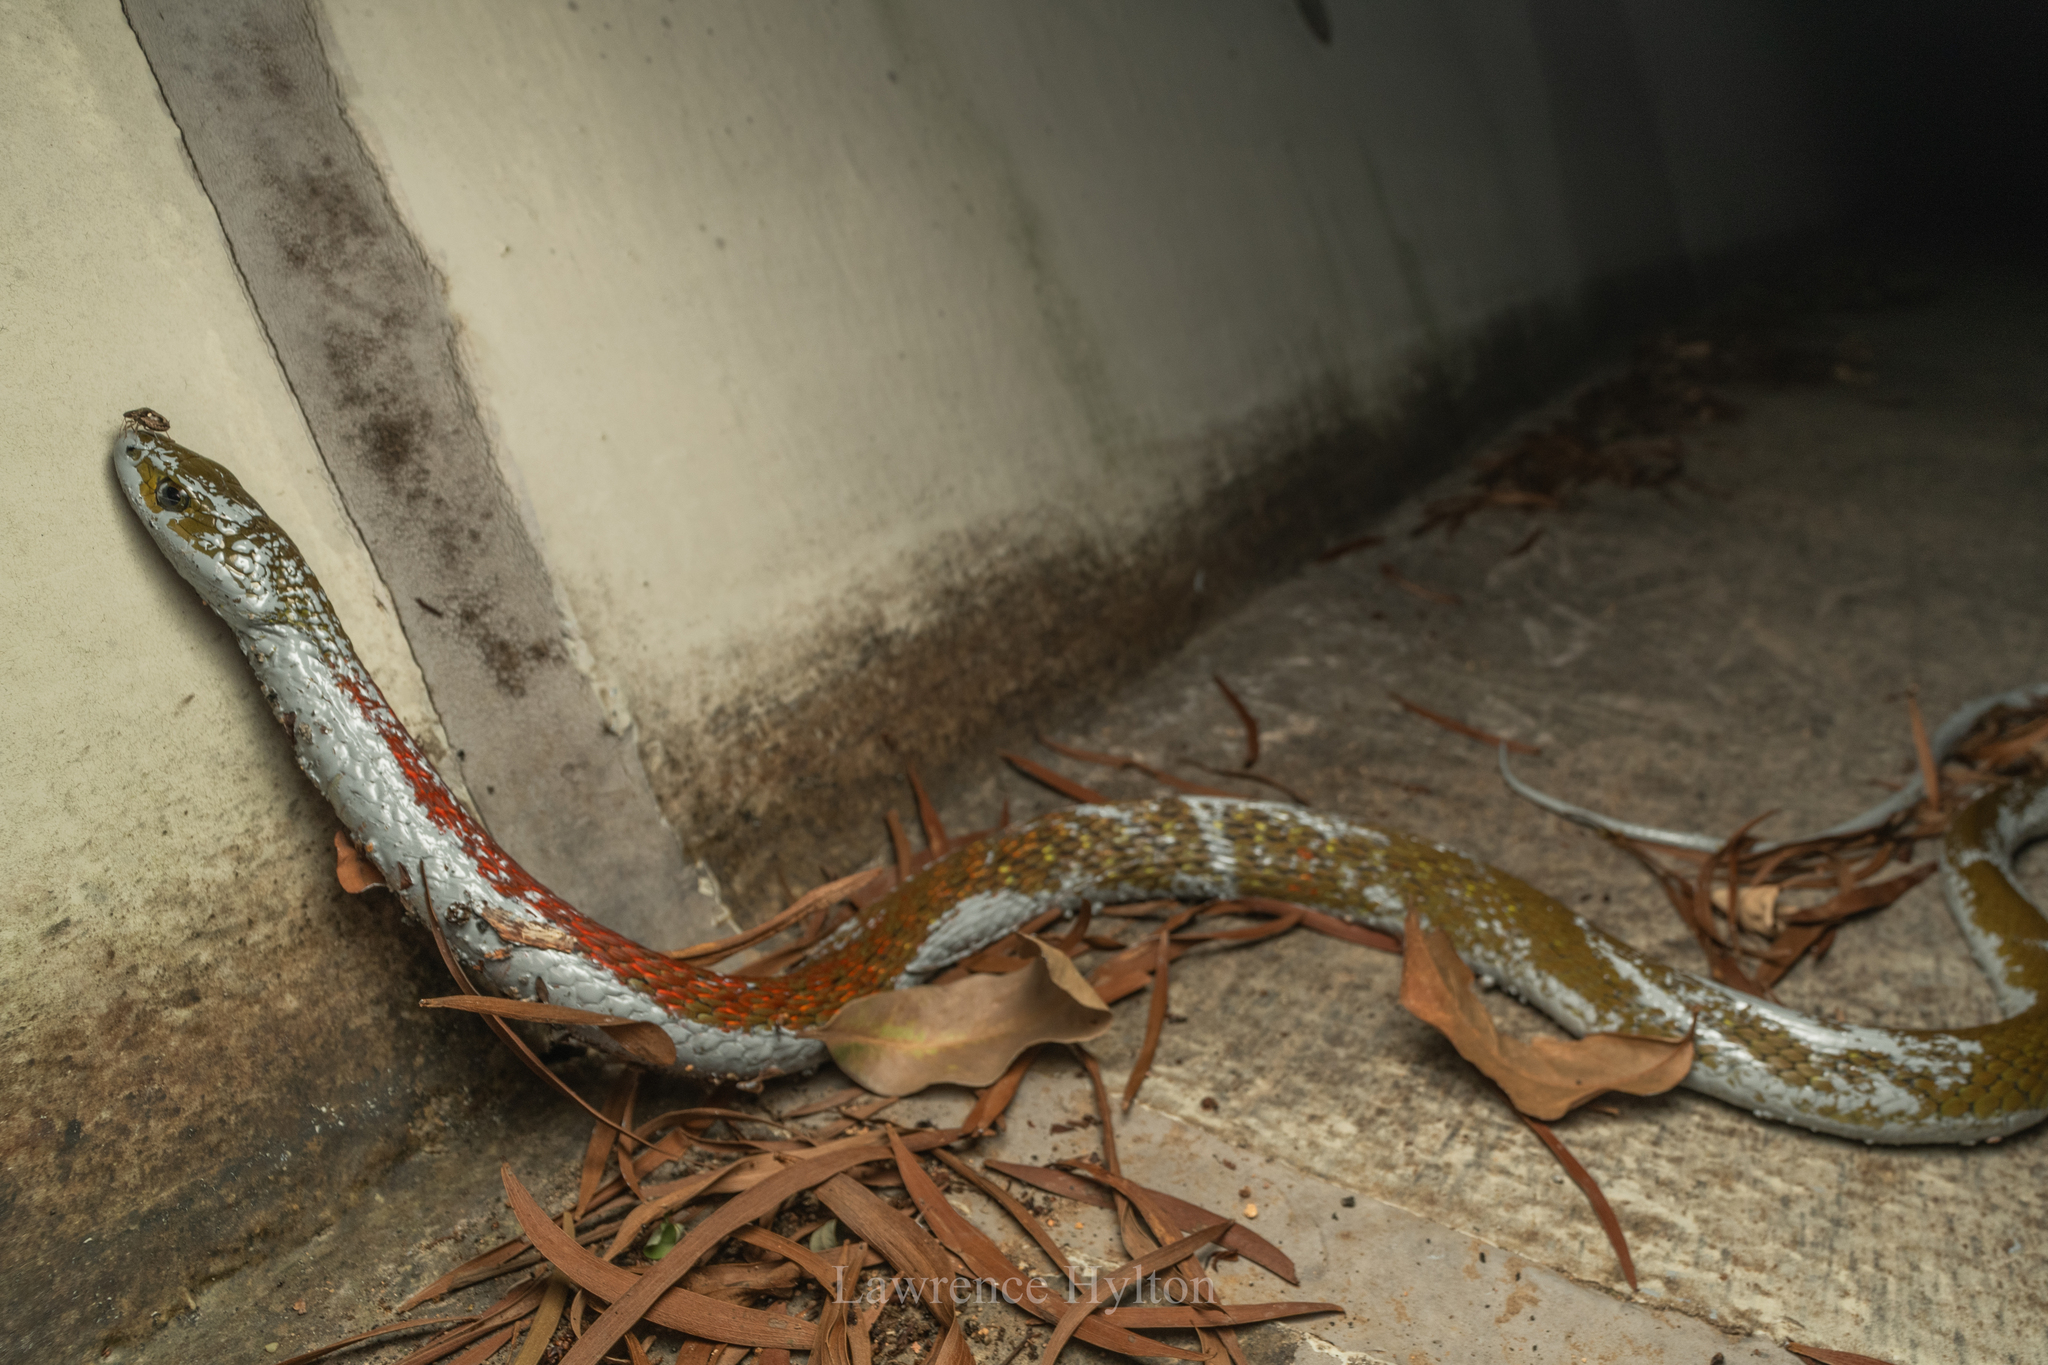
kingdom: Animalia
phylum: Chordata
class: Squamata
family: Colubridae
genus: Rhabdophis
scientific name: Rhabdophis helleri
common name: Heller’s red-necked keelback
